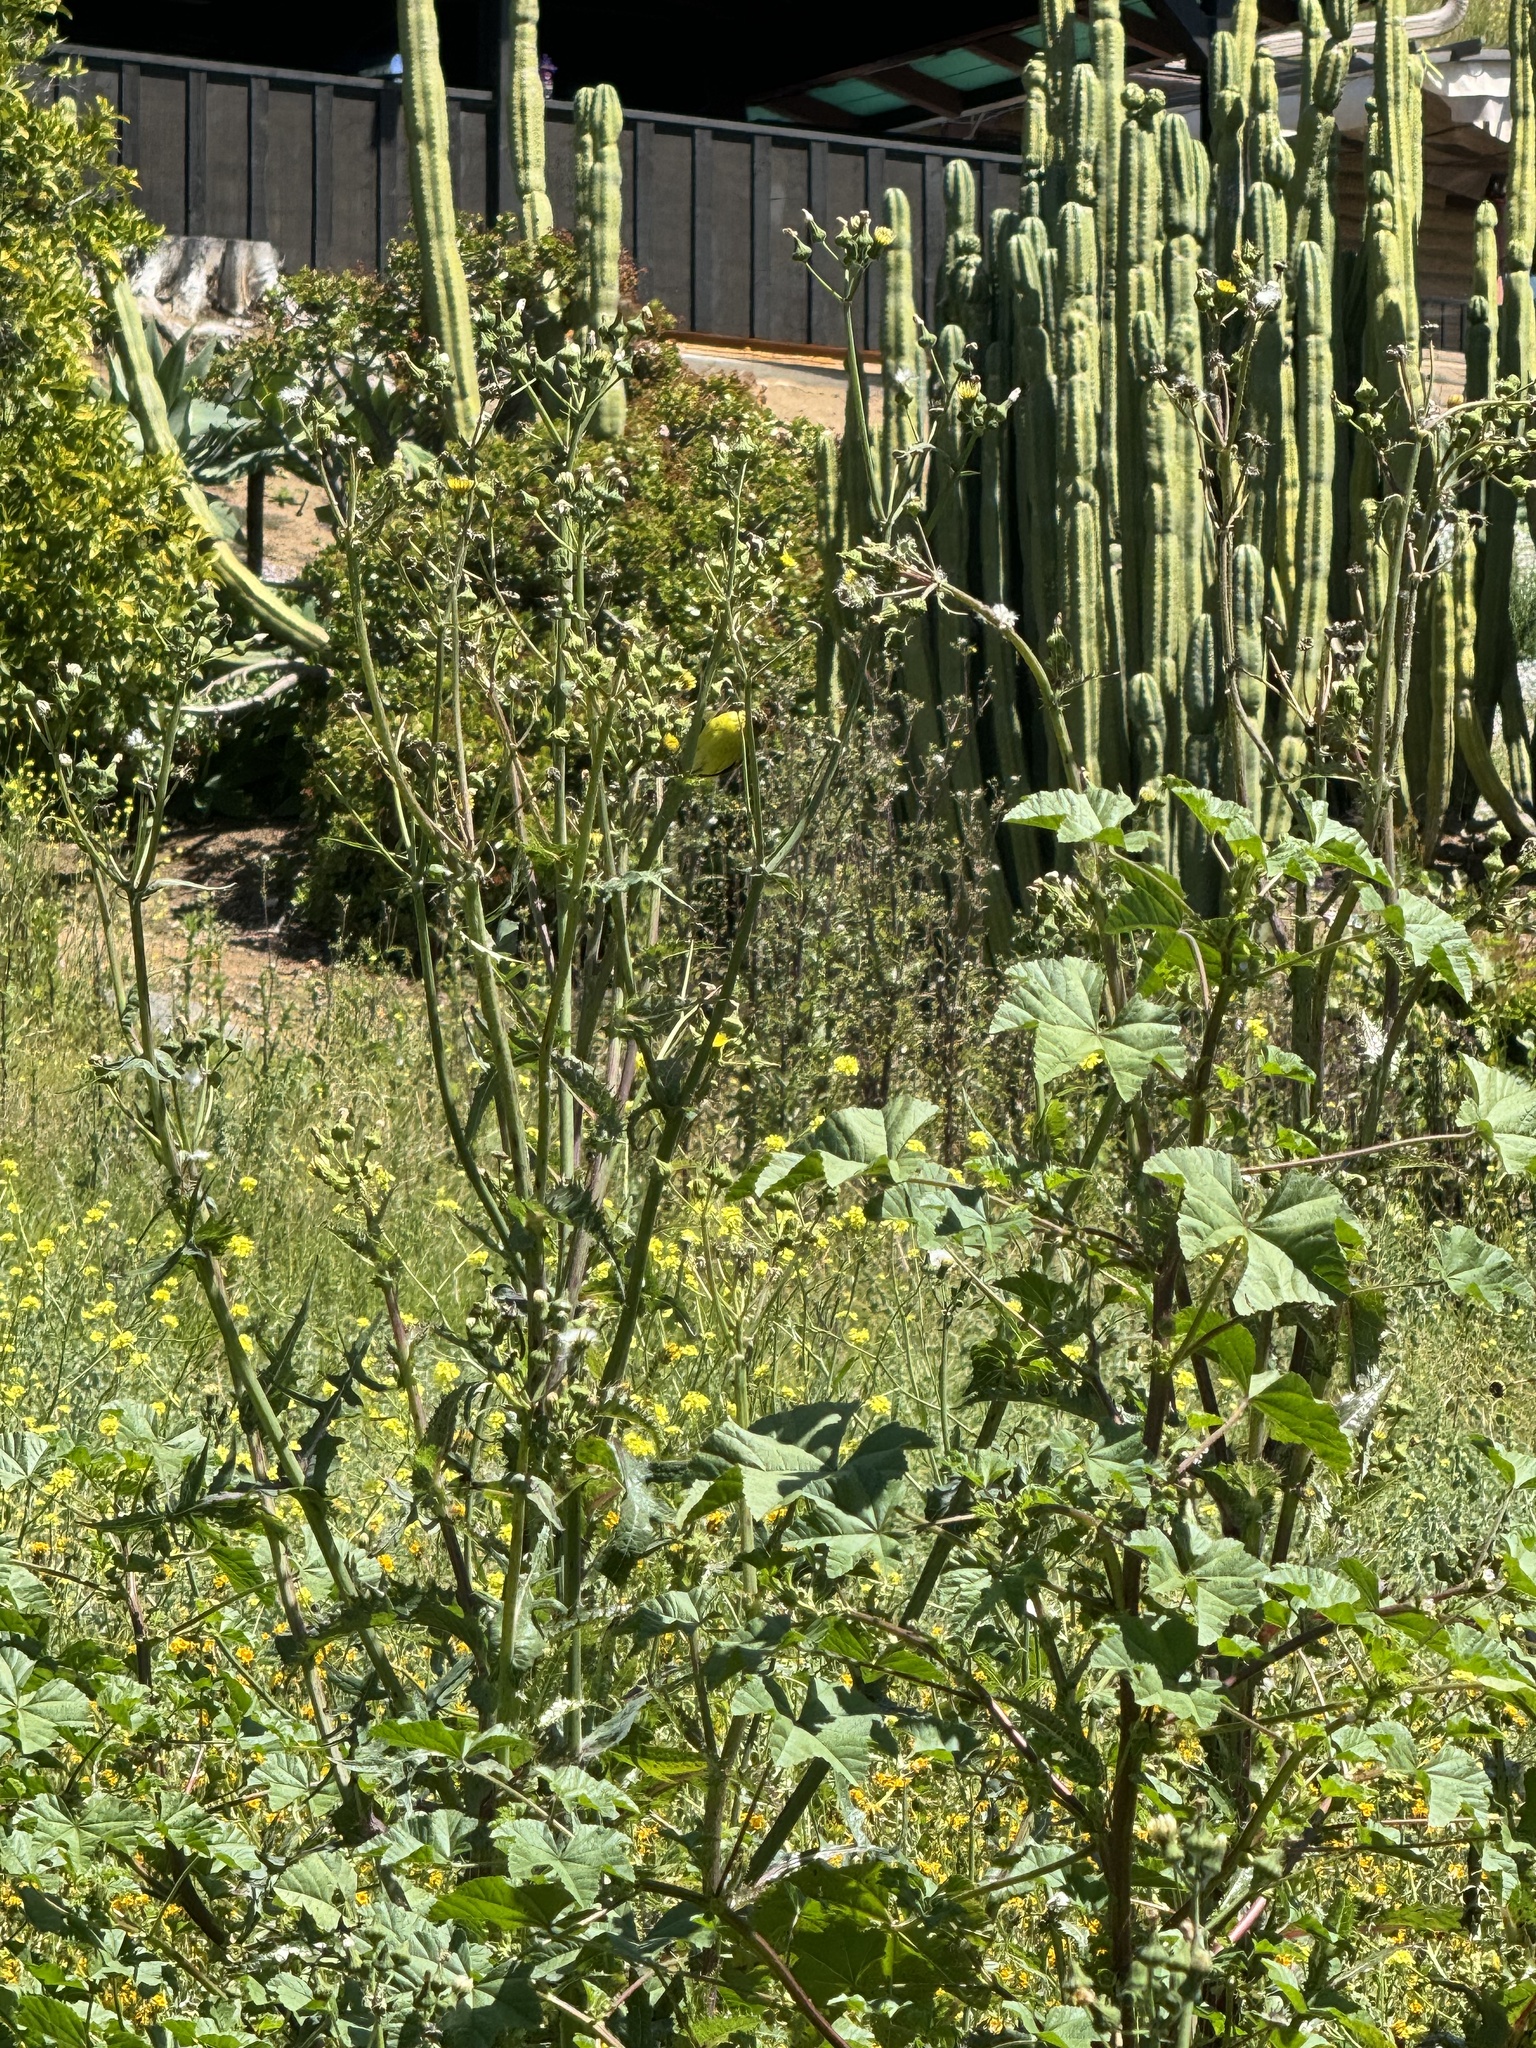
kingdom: Animalia
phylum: Chordata
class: Aves
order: Passeriformes
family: Fringillidae
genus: Spinus
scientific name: Spinus psaltria
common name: Lesser goldfinch
